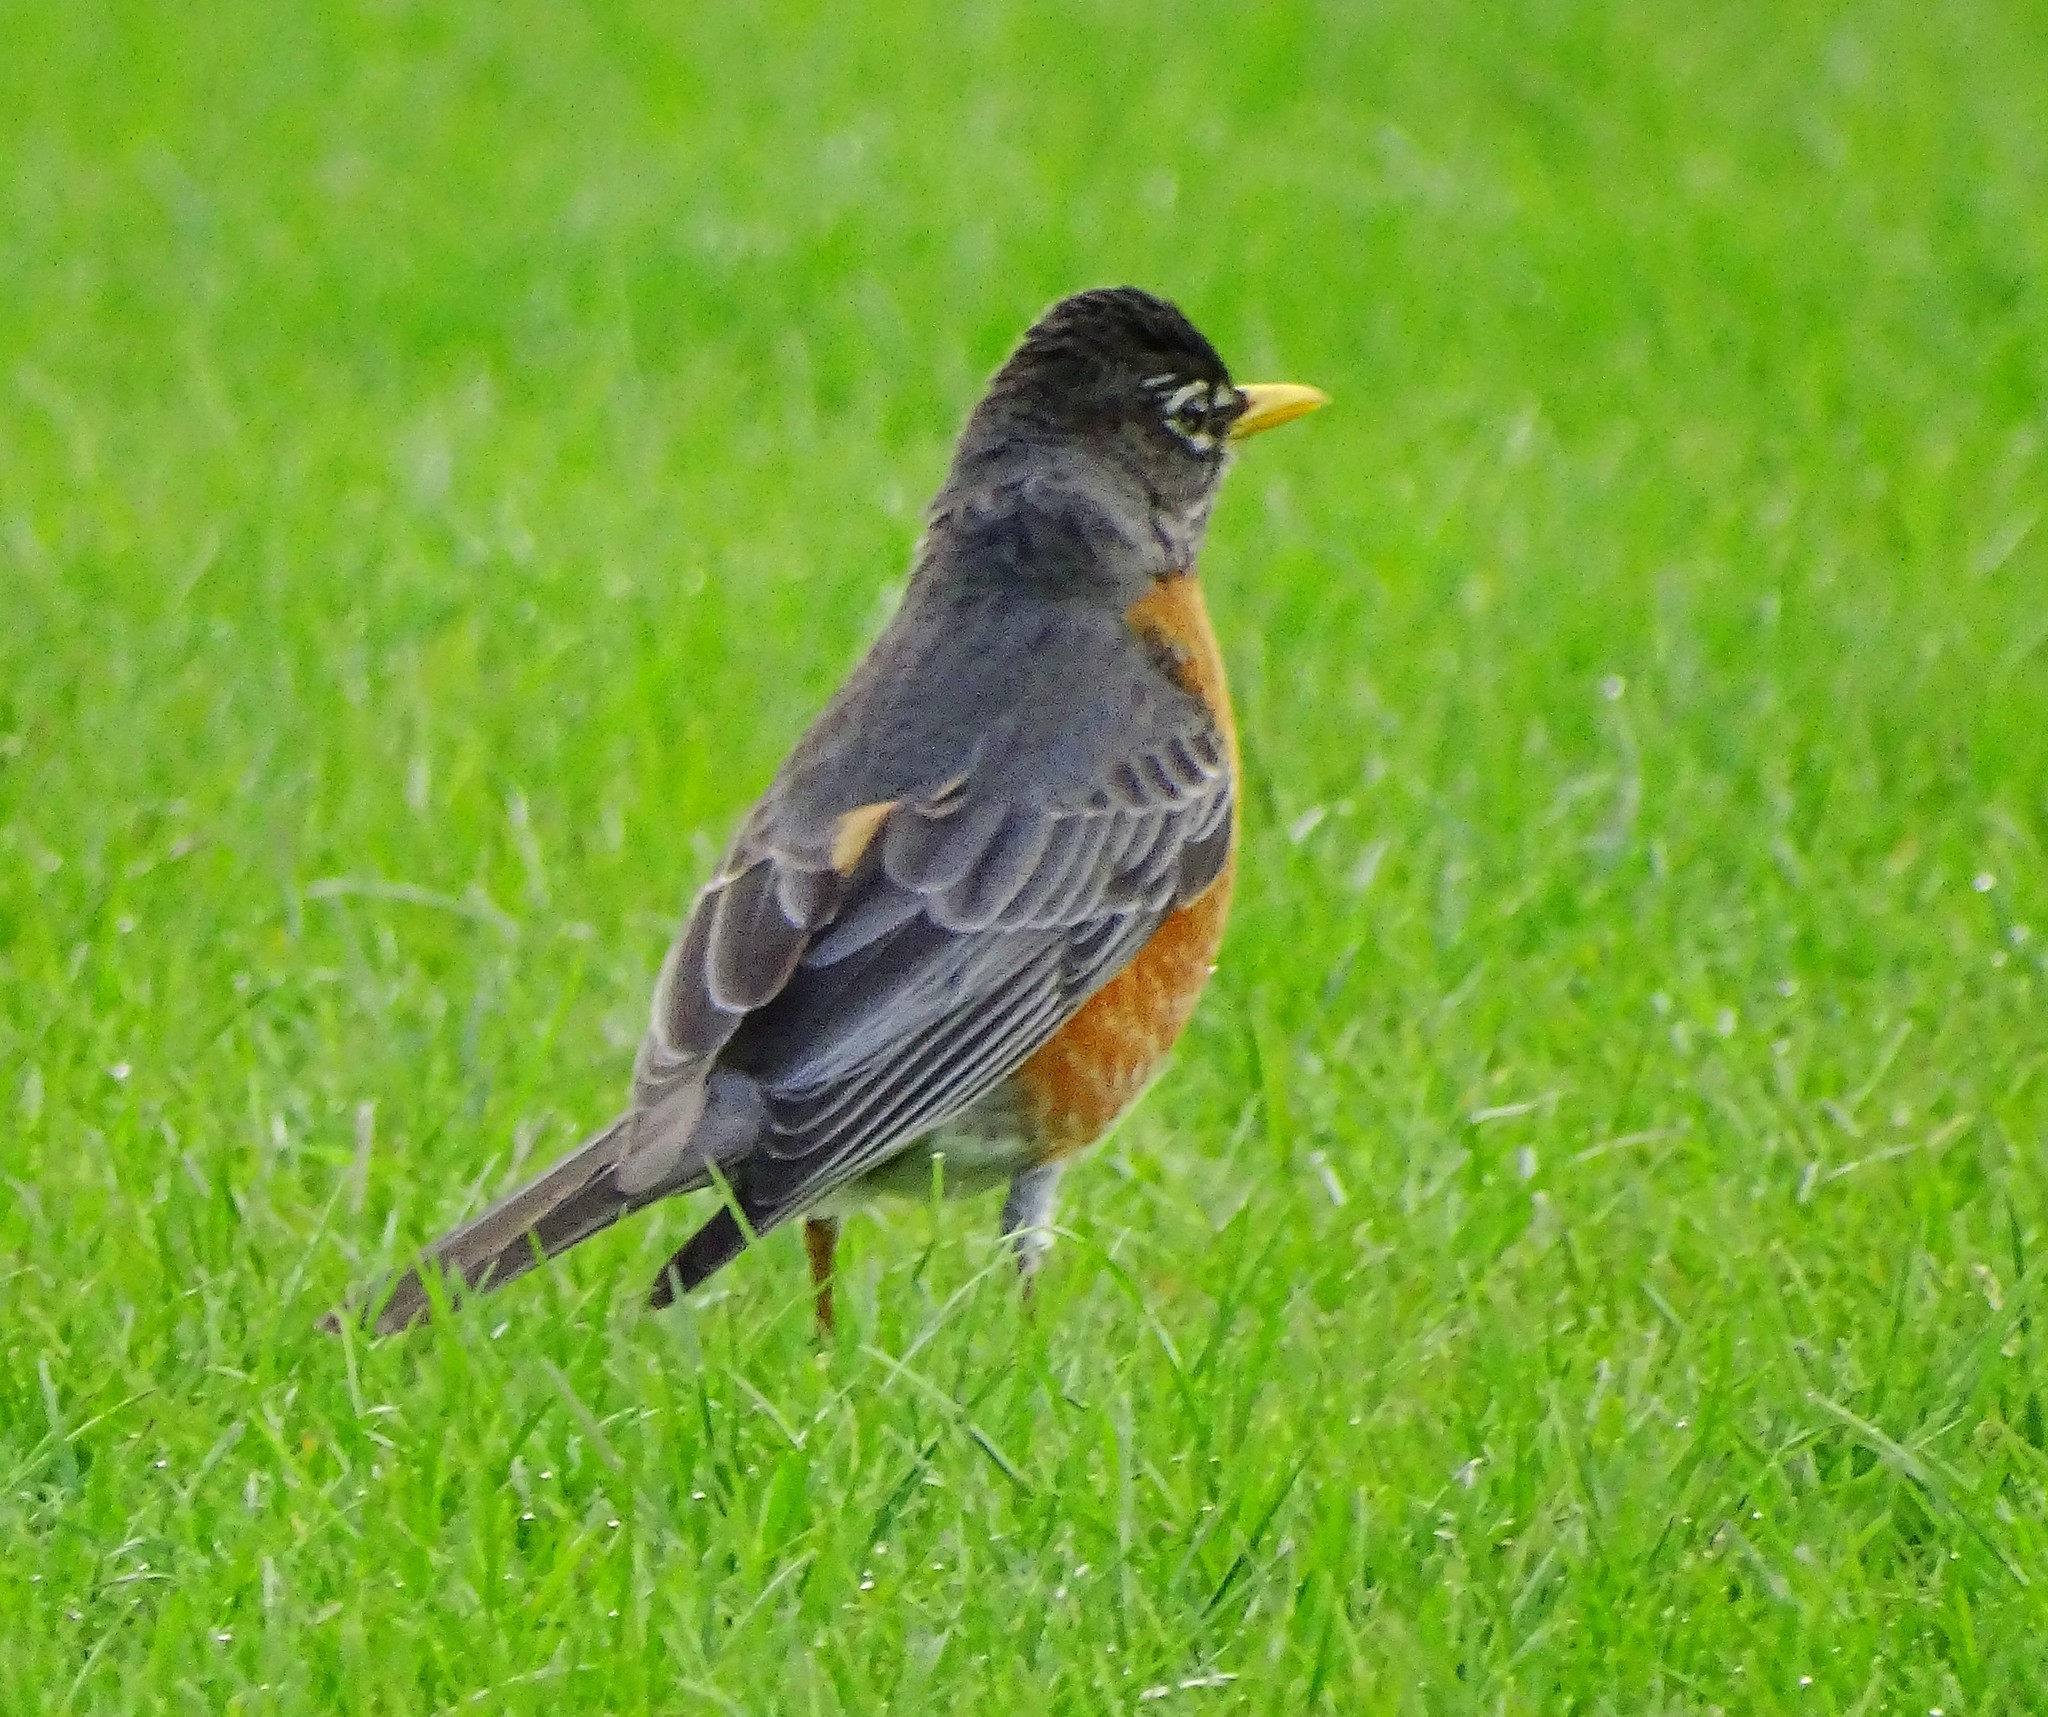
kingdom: Animalia
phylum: Chordata
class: Aves
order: Passeriformes
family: Turdidae
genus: Turdus
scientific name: Turdus migratorius
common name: American robin
